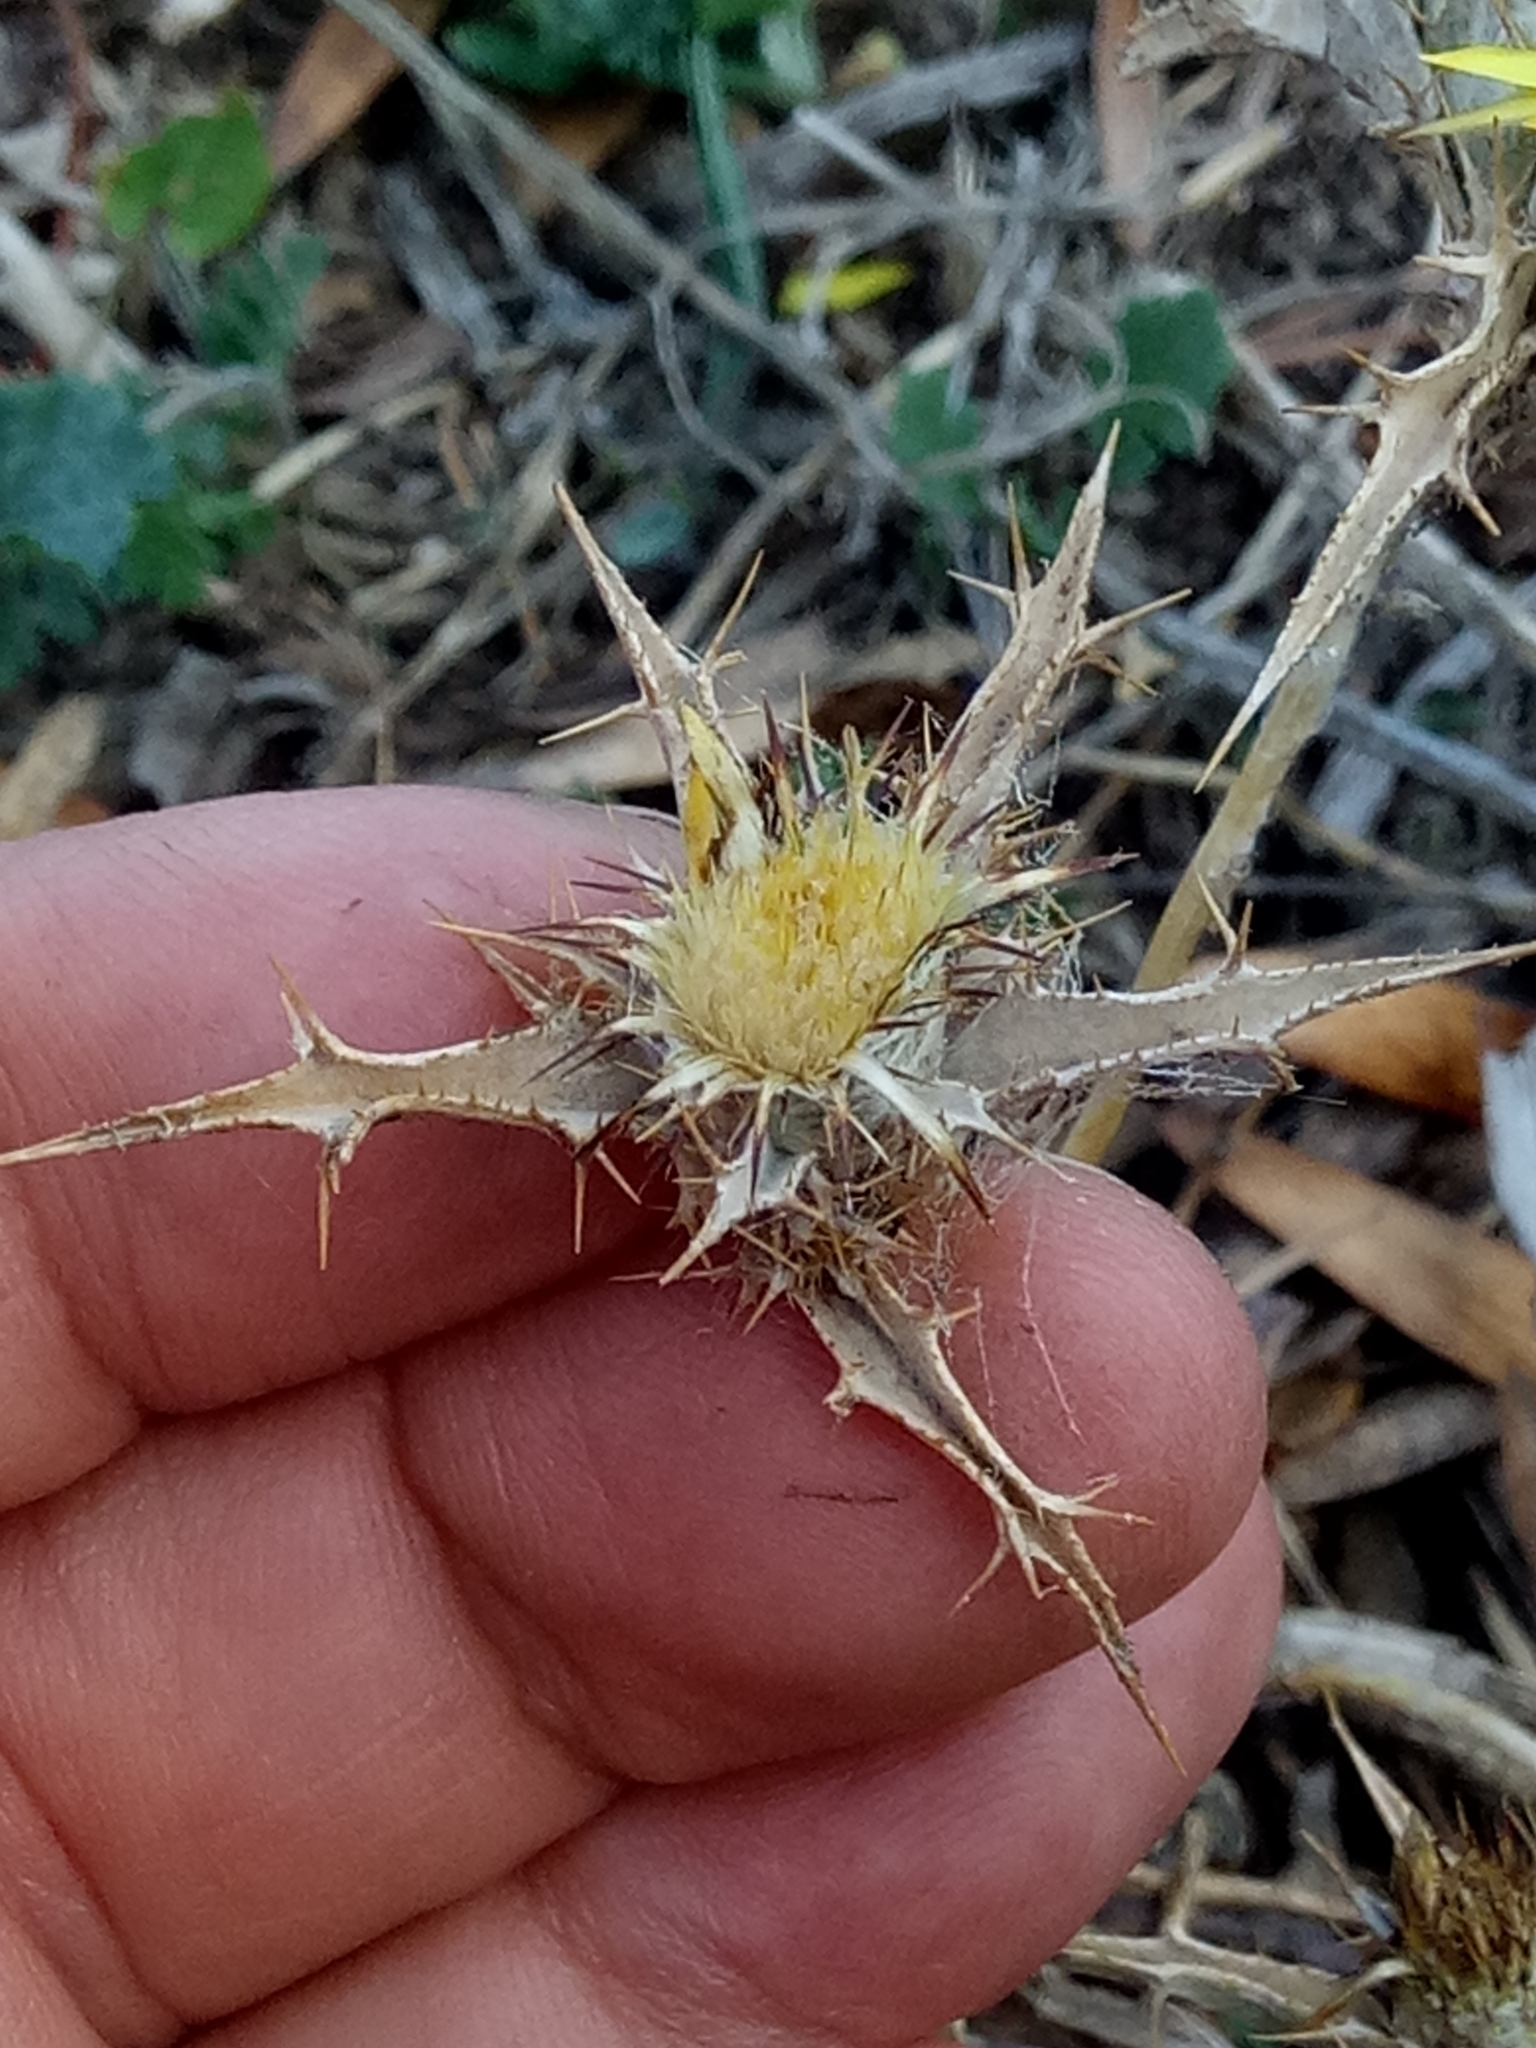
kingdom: Plantae
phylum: Tracheophyta
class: Magnoliopsida
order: Asterales
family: Asteraceae
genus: Carlina
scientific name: Carlina racemosa
